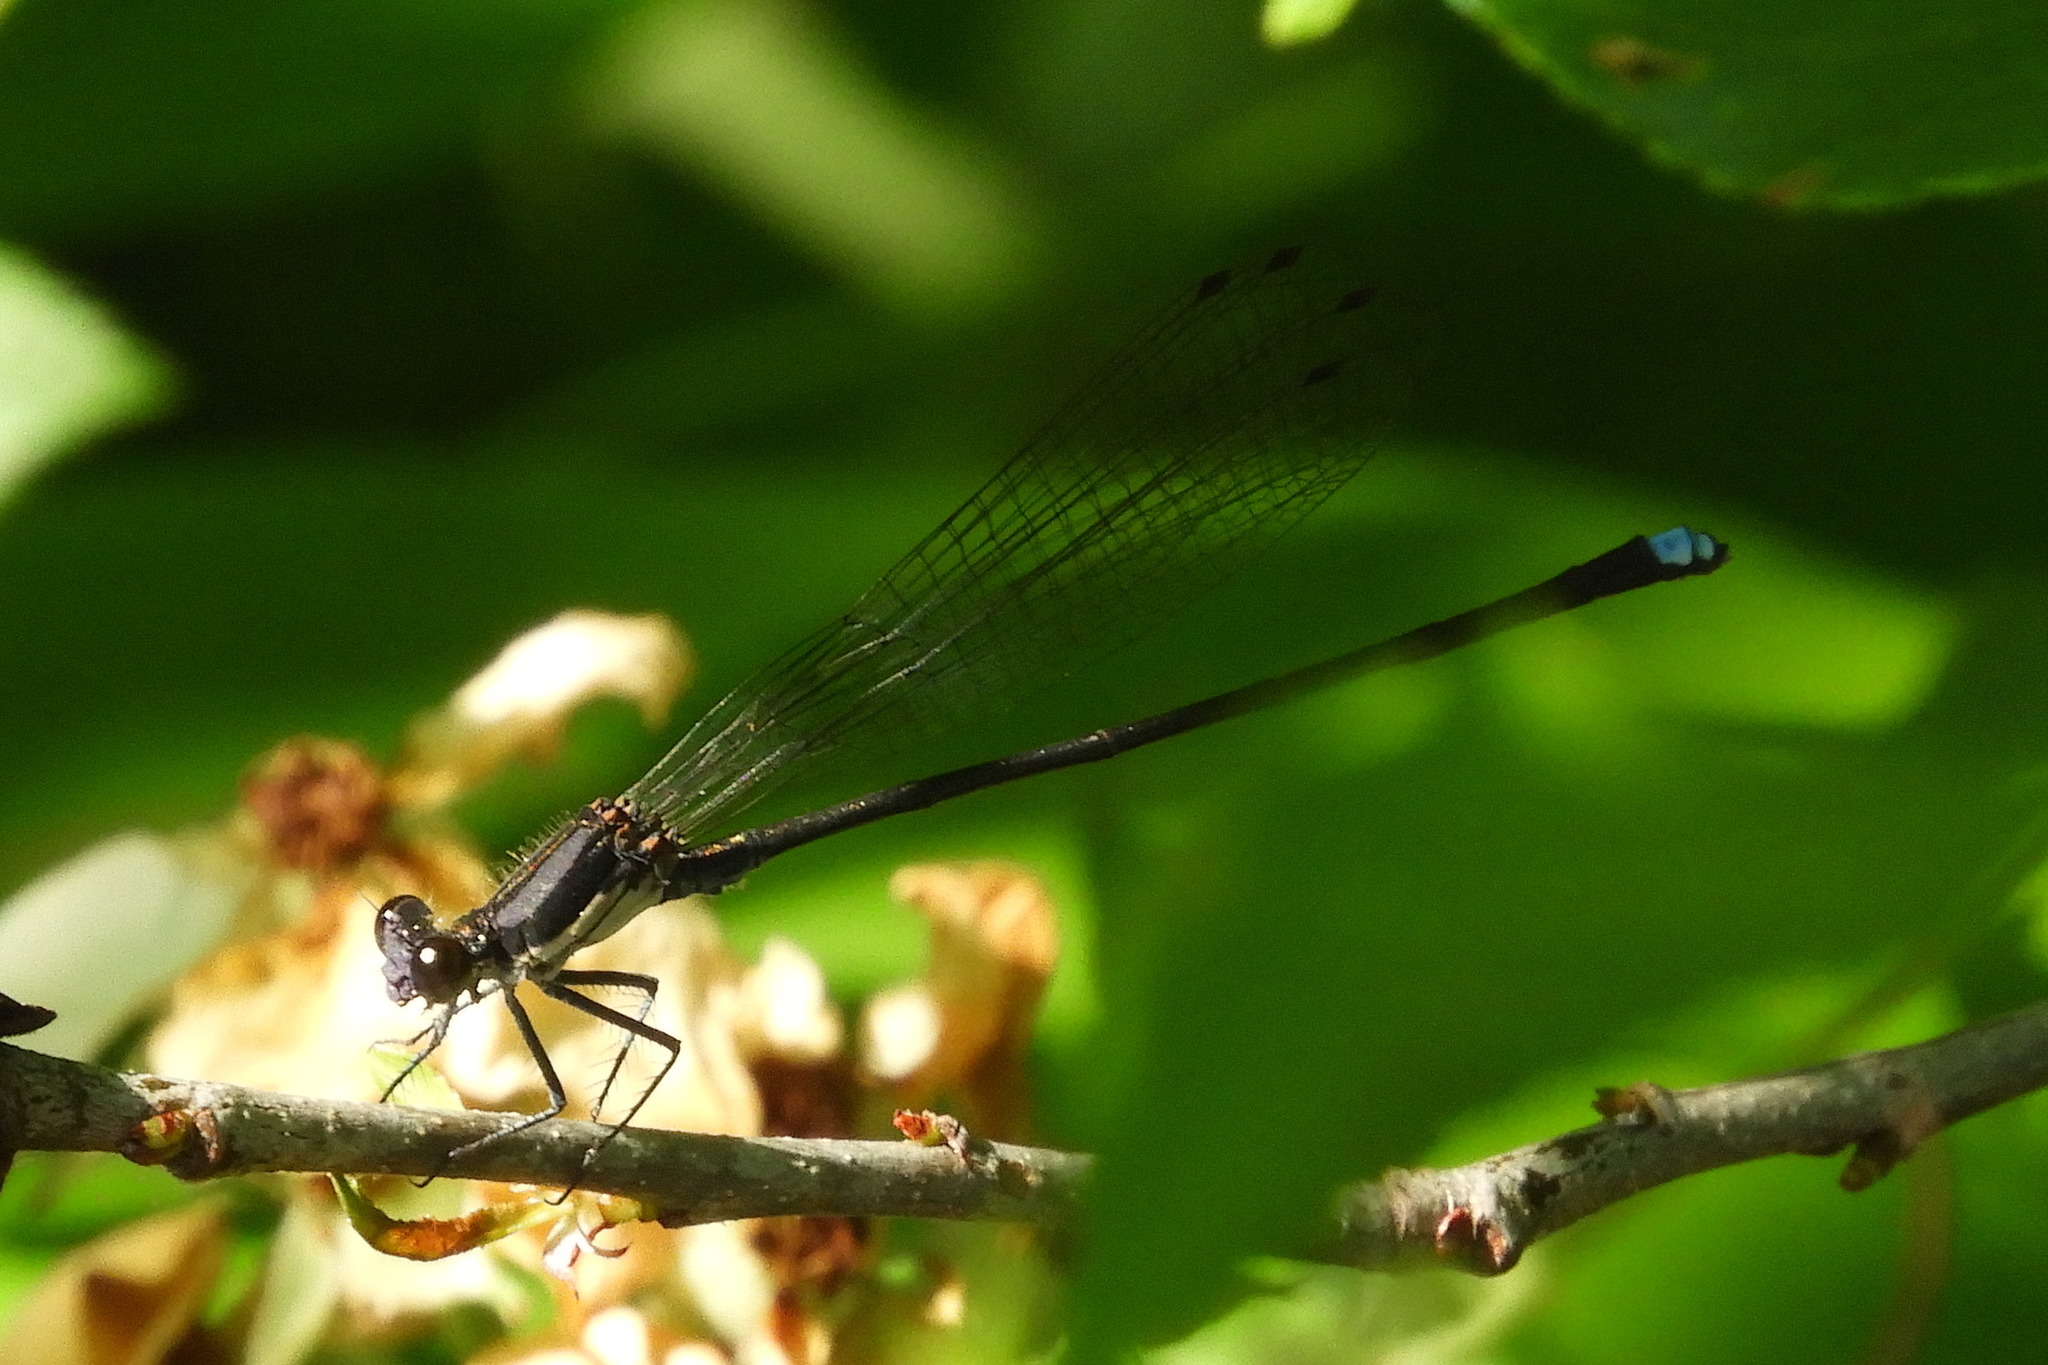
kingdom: Animalia
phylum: Arthropoda
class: Insecta
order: Odonata
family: Coenagrionidae
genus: Argia
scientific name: Argia tibialis
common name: Blue-tipped dancer
